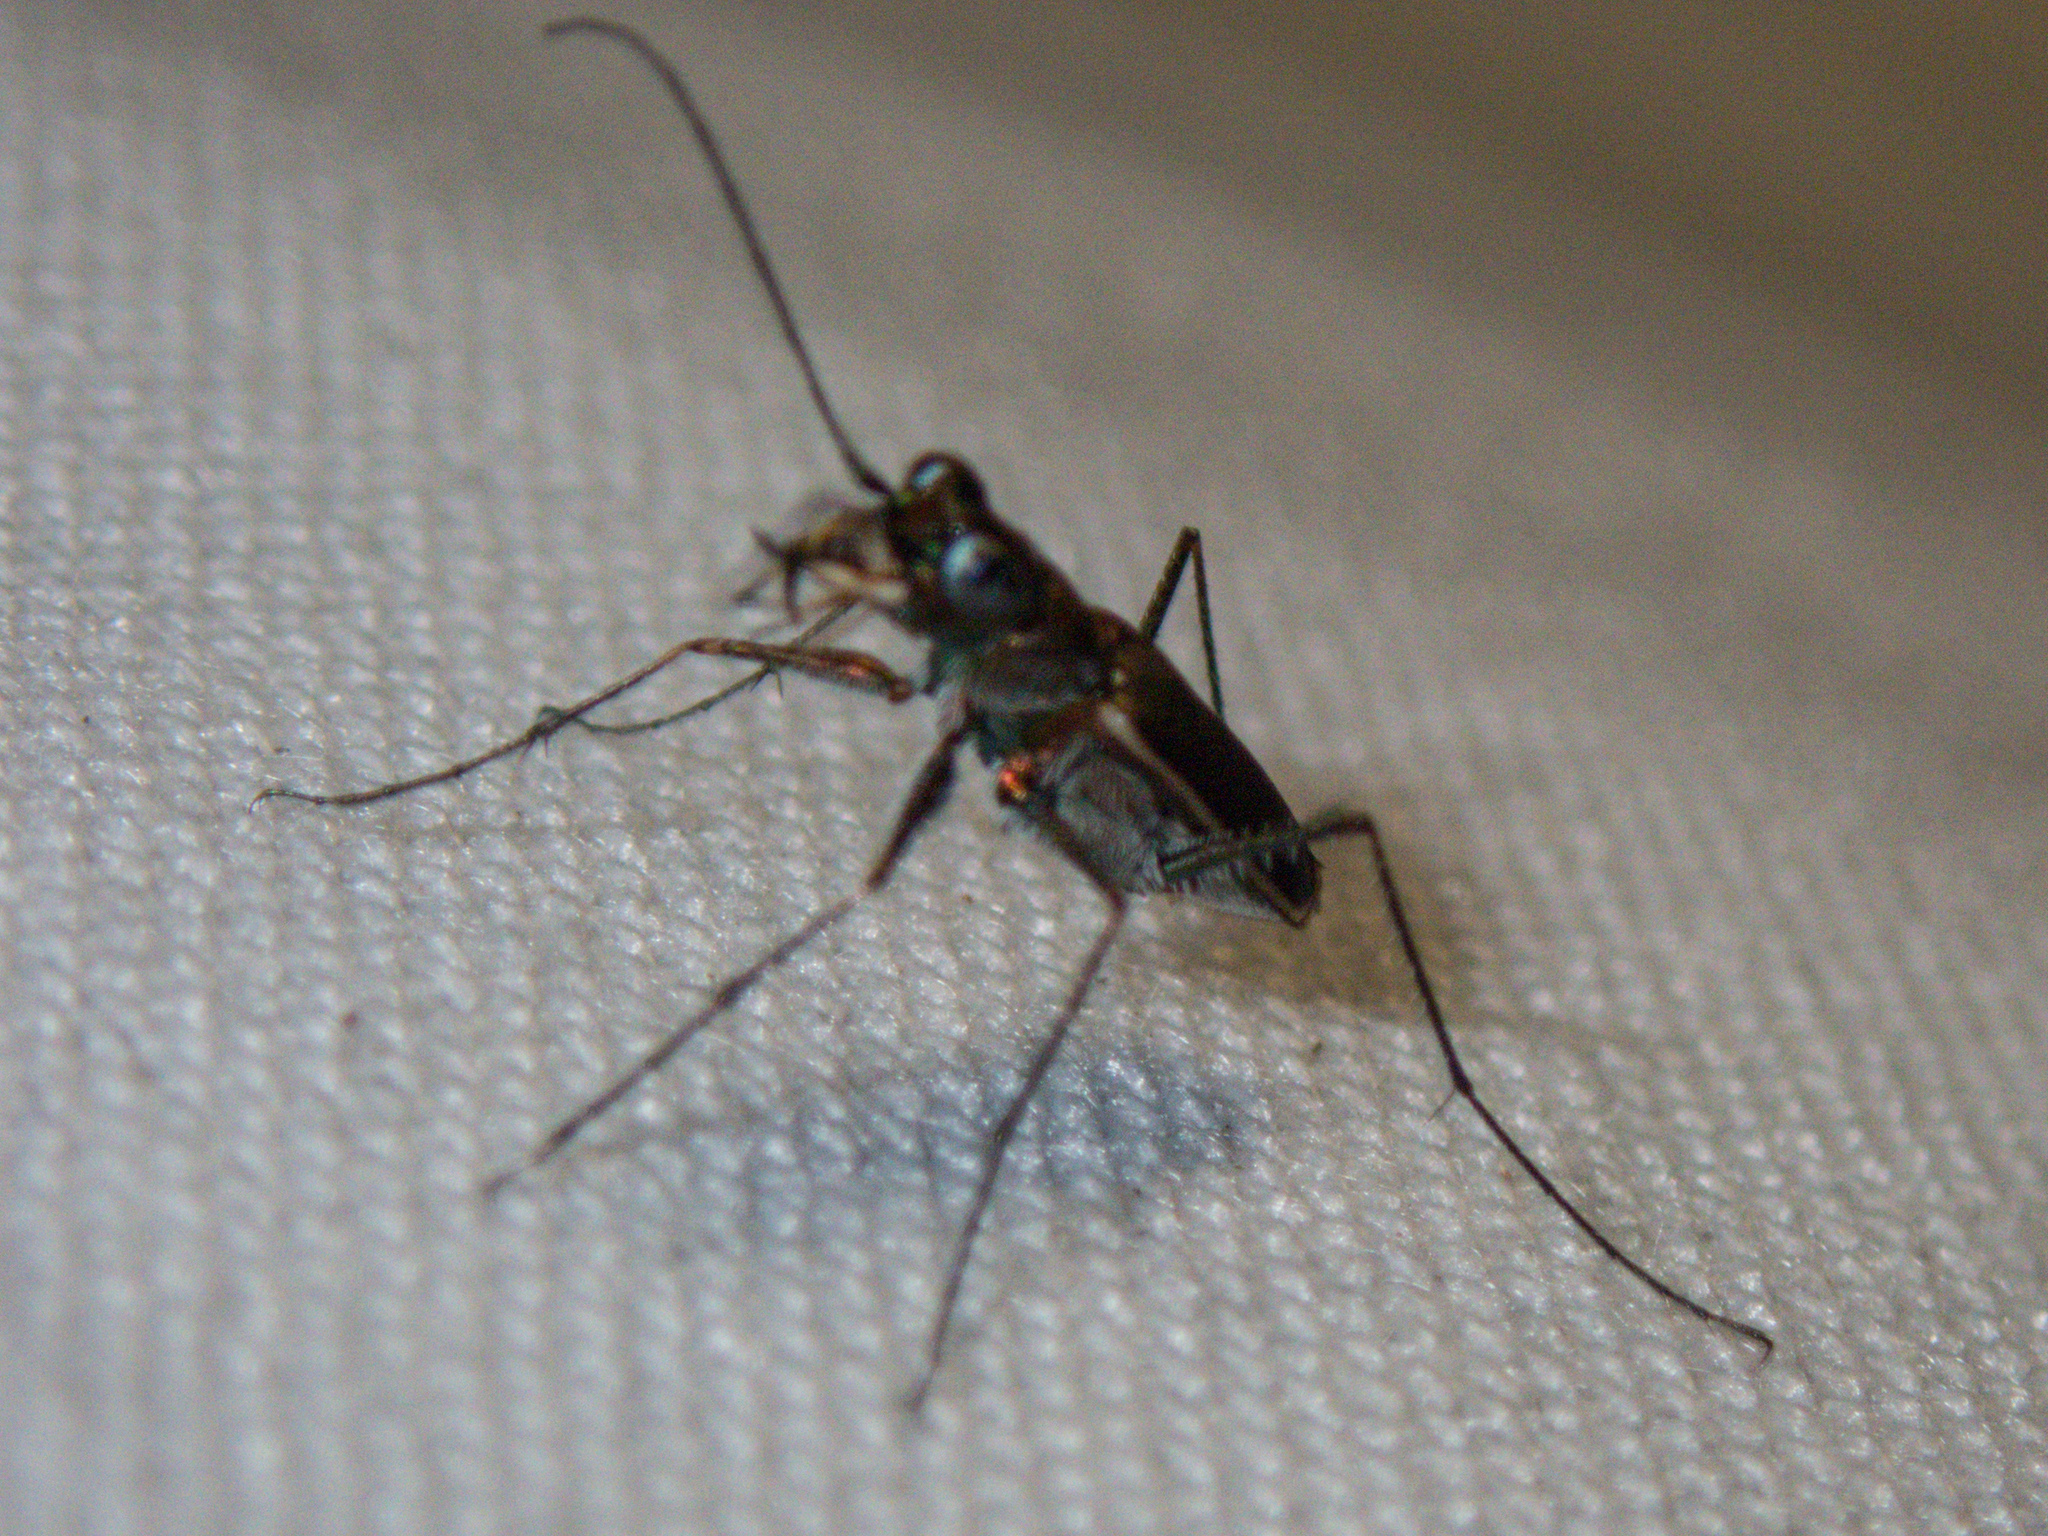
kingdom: Animalia
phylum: Arthropoda
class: Insecta
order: Coleoptera
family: Carabidae
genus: Enantiola
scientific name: Enantiola hewittii
